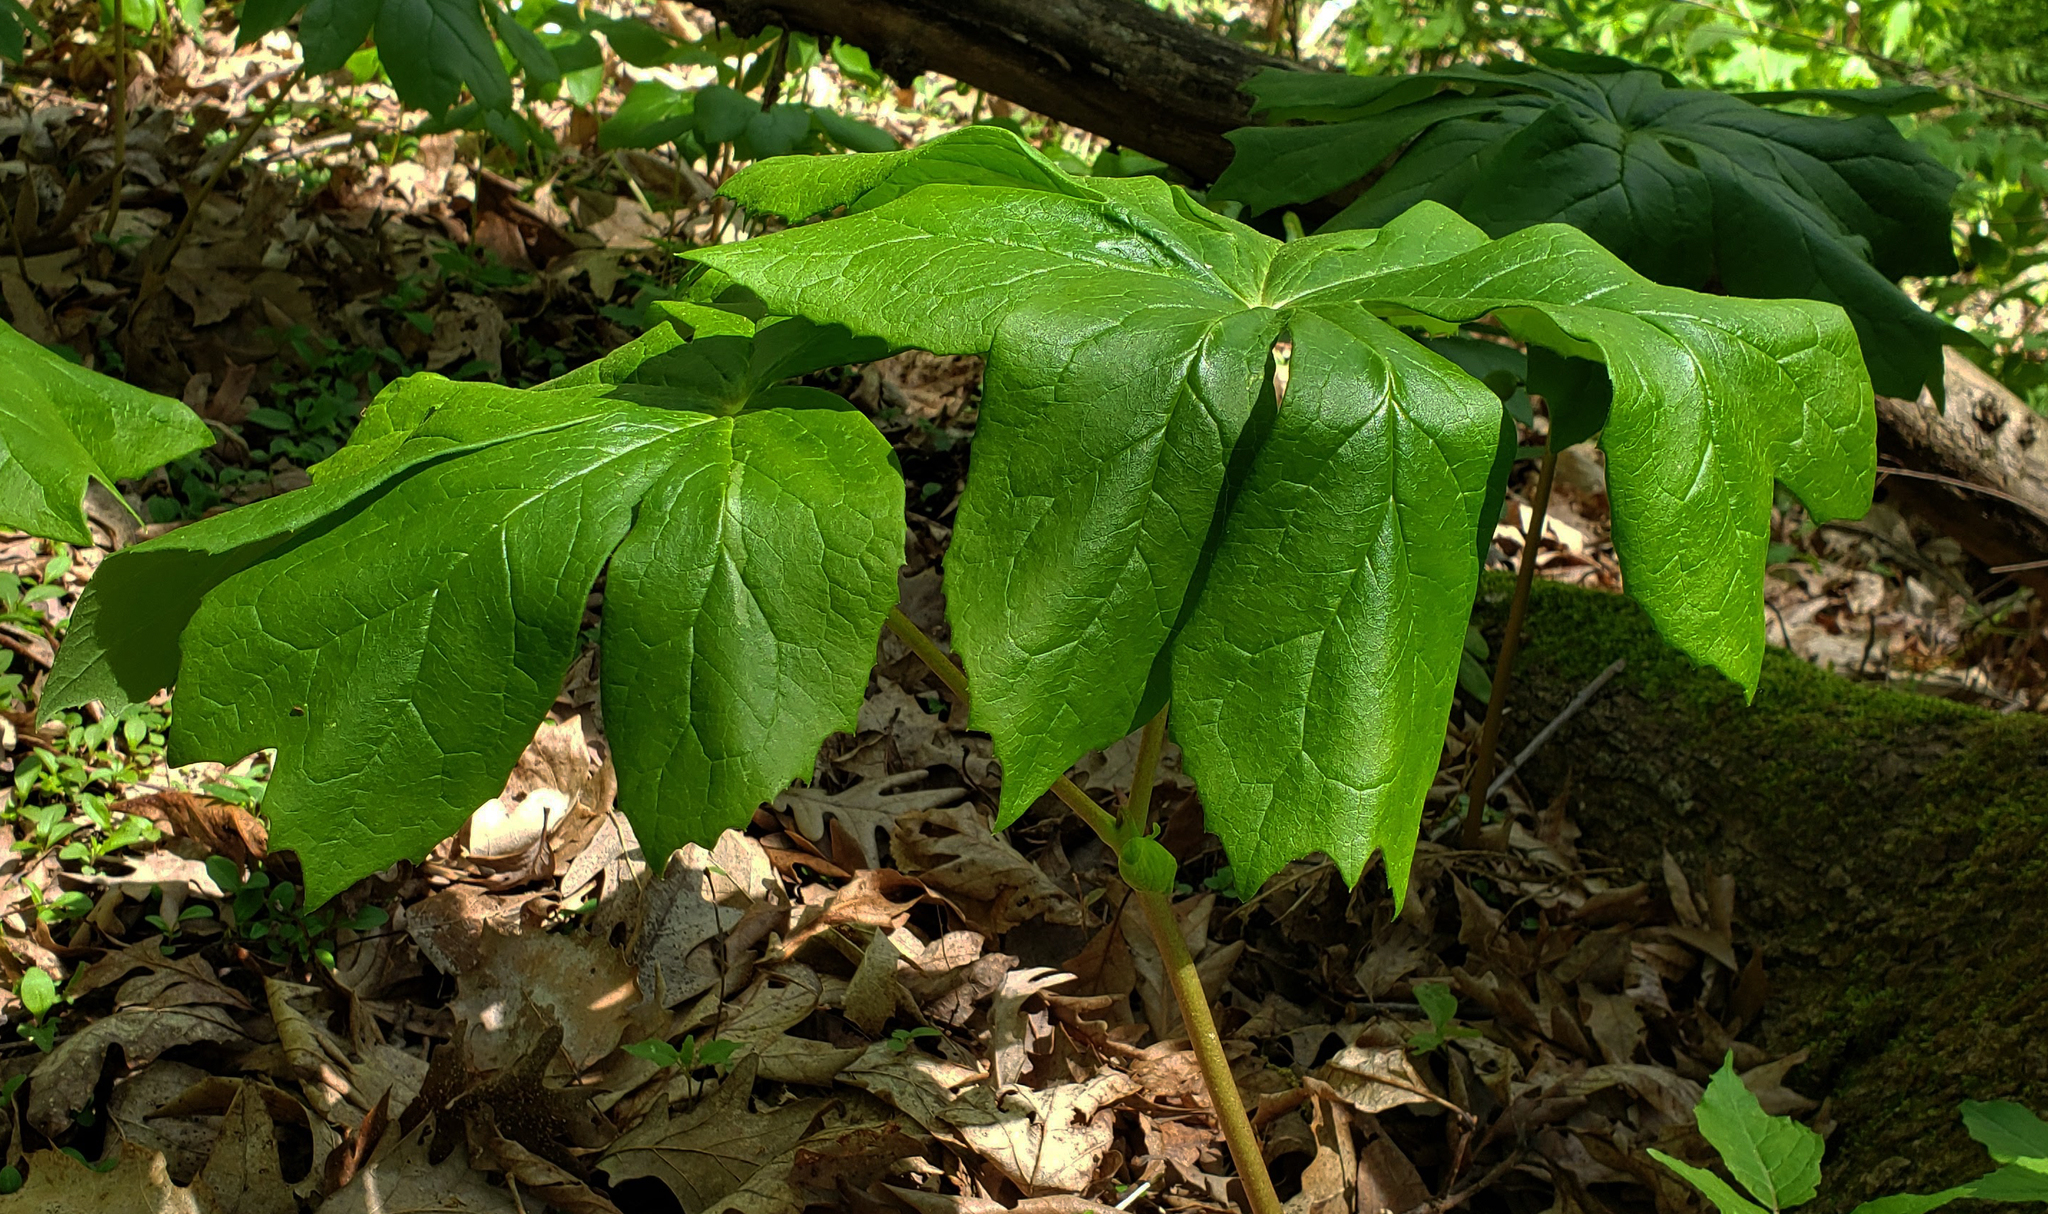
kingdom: Plantae
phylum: Tracheophyta
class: Magnoliopsida
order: Ranunculales
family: Berberidaceae
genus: Podophyllum
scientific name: Podophyllum peltatum
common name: Wild mandrake
